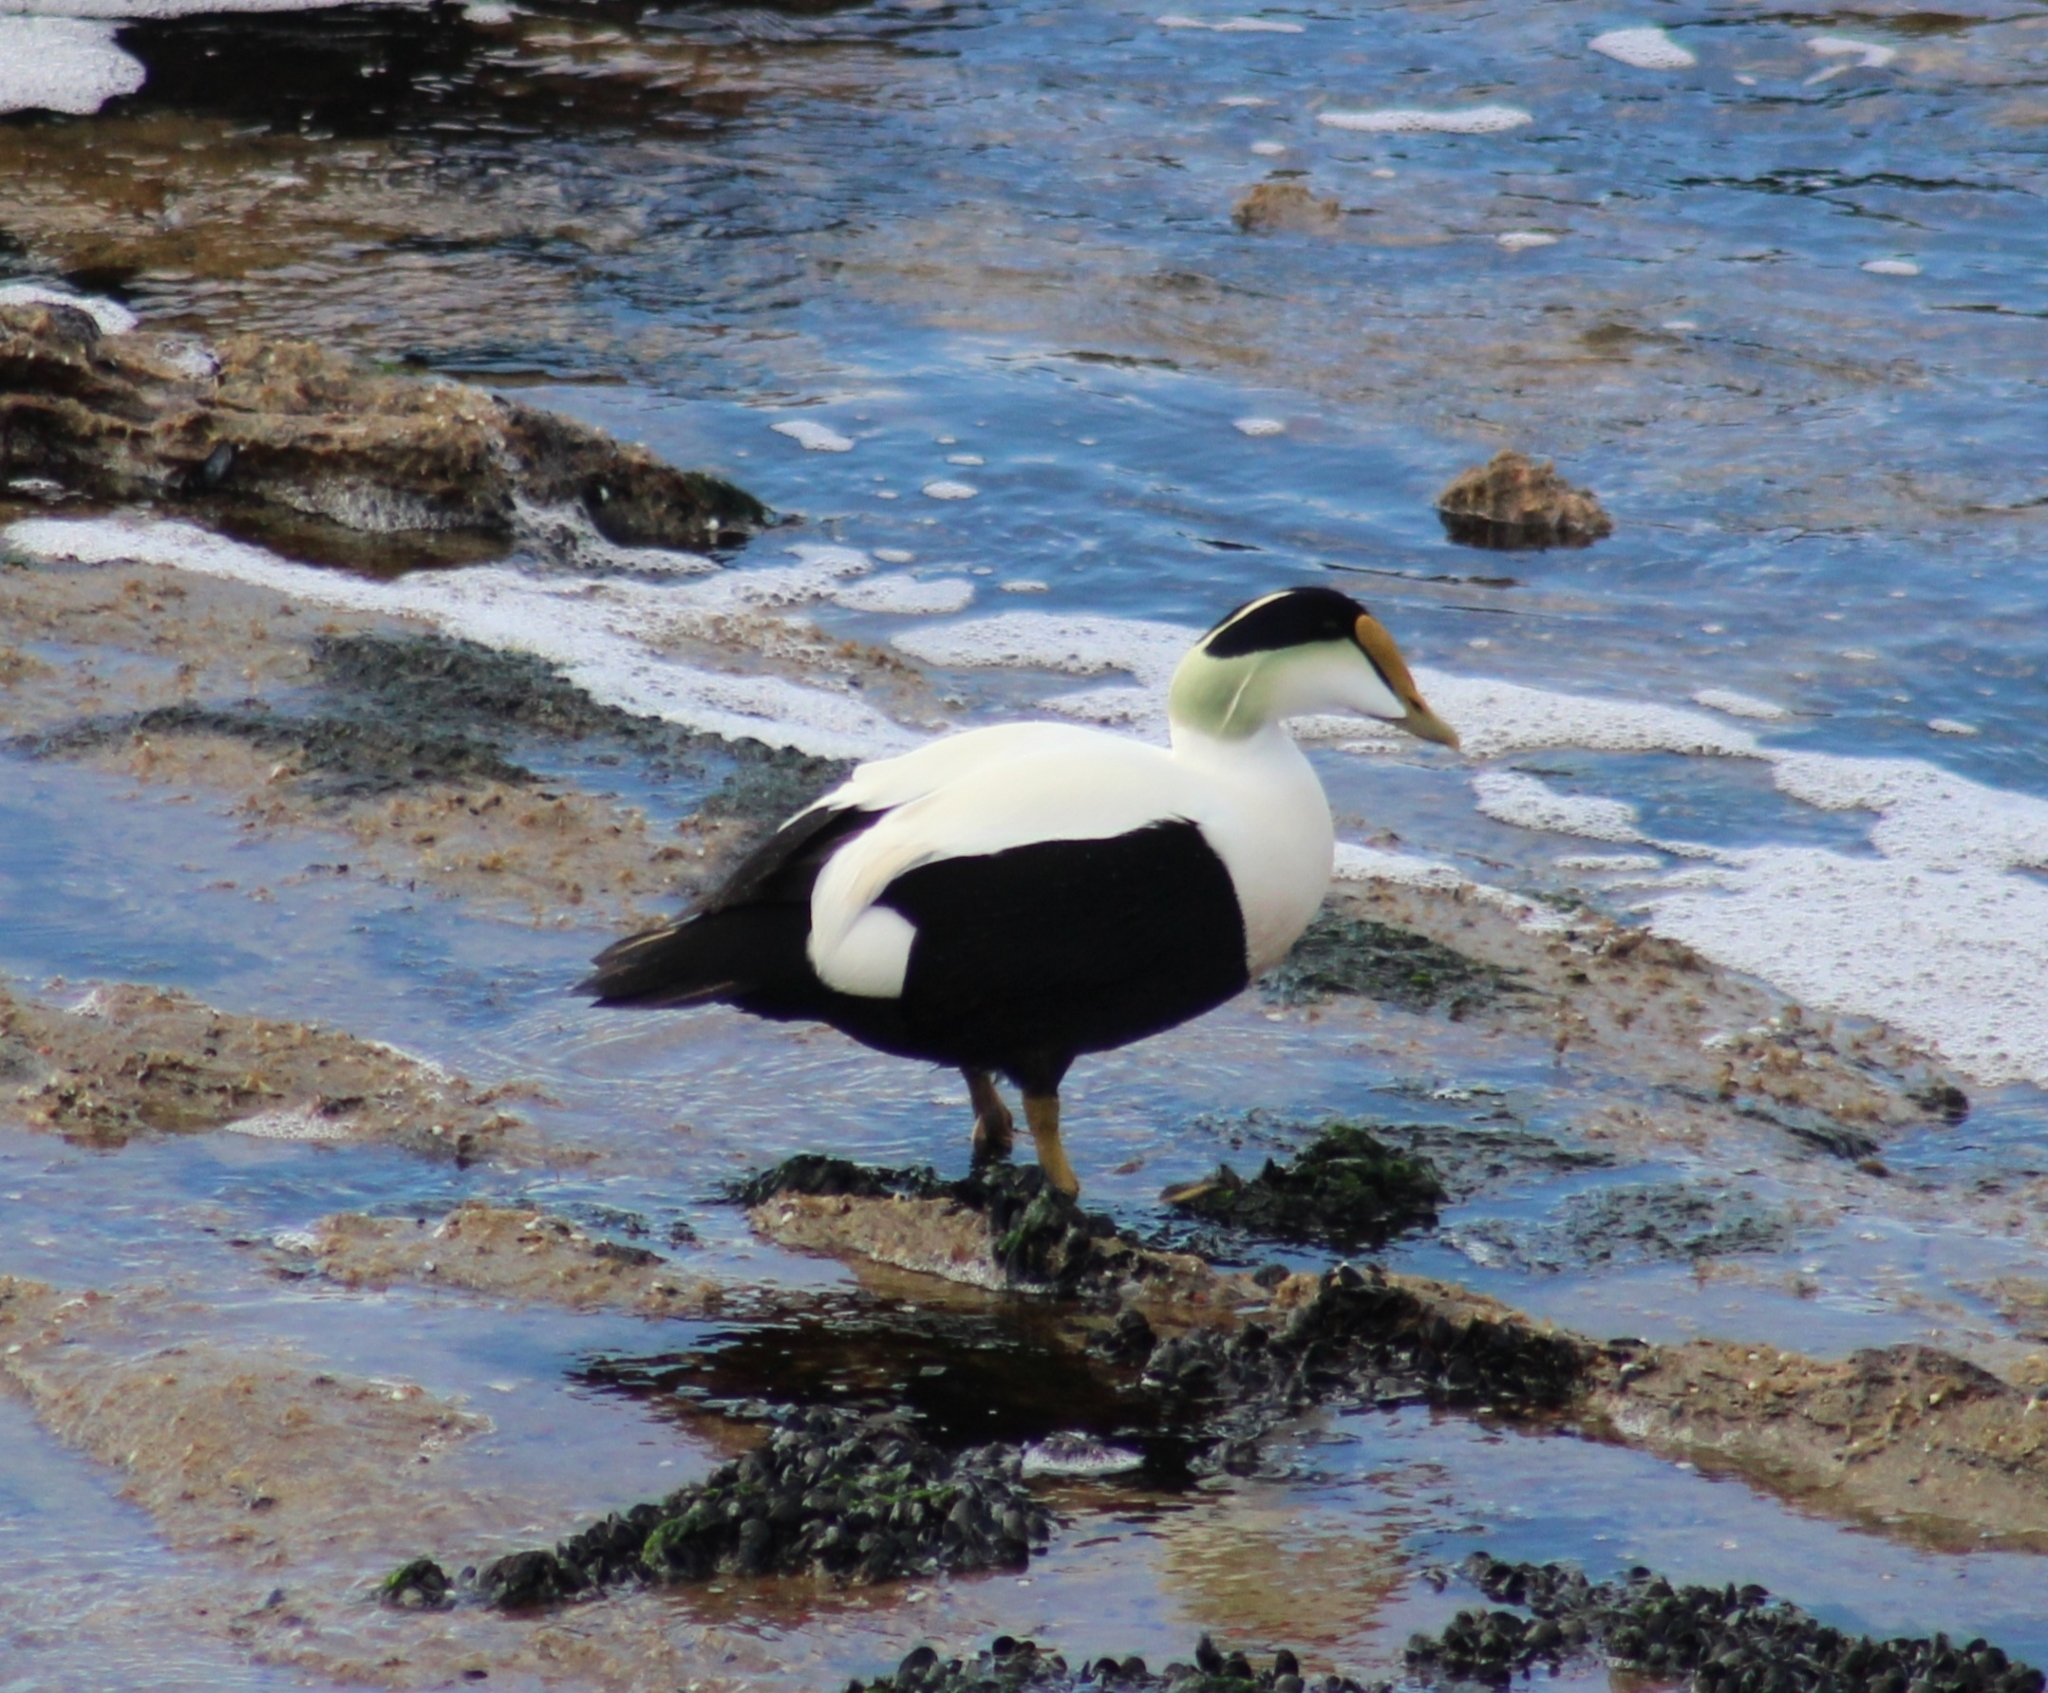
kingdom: Animalia
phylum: Chordata
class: Aves
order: Anseriformes
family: Anatidae
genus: Somateria
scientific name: Somateria mollissima
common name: Common eider
